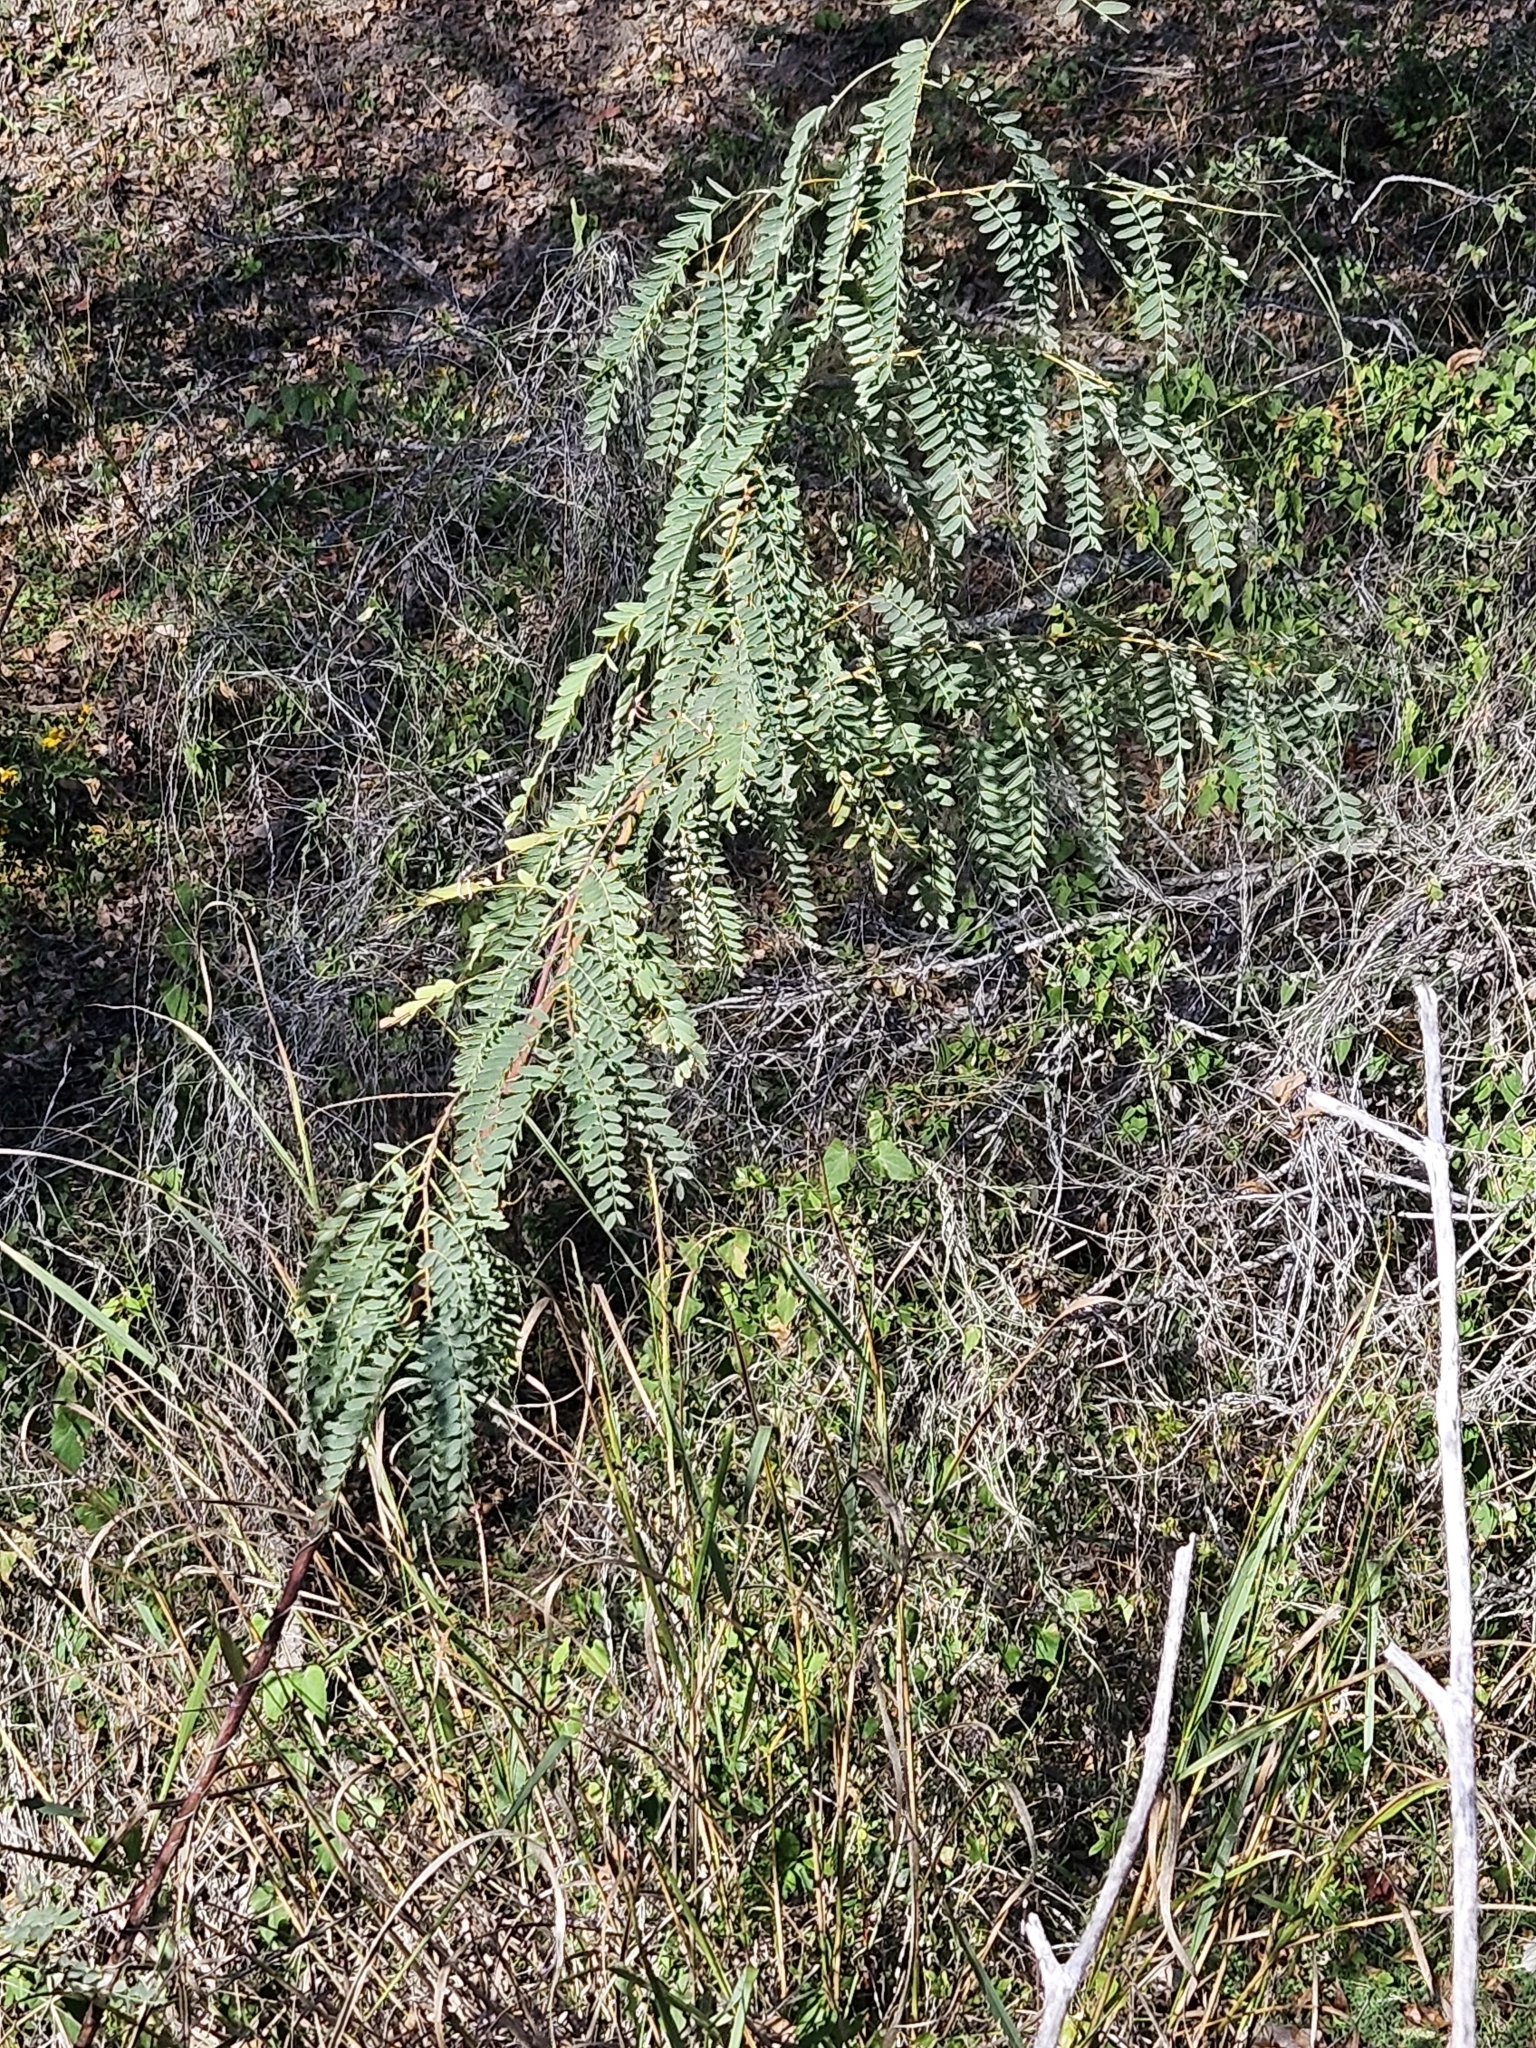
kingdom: Plantae
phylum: Tracheophyta
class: Magnoliopsida
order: Fabales
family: Fabaceae
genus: Sesbania
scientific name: Sesbania drummondii
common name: Poison-bean
